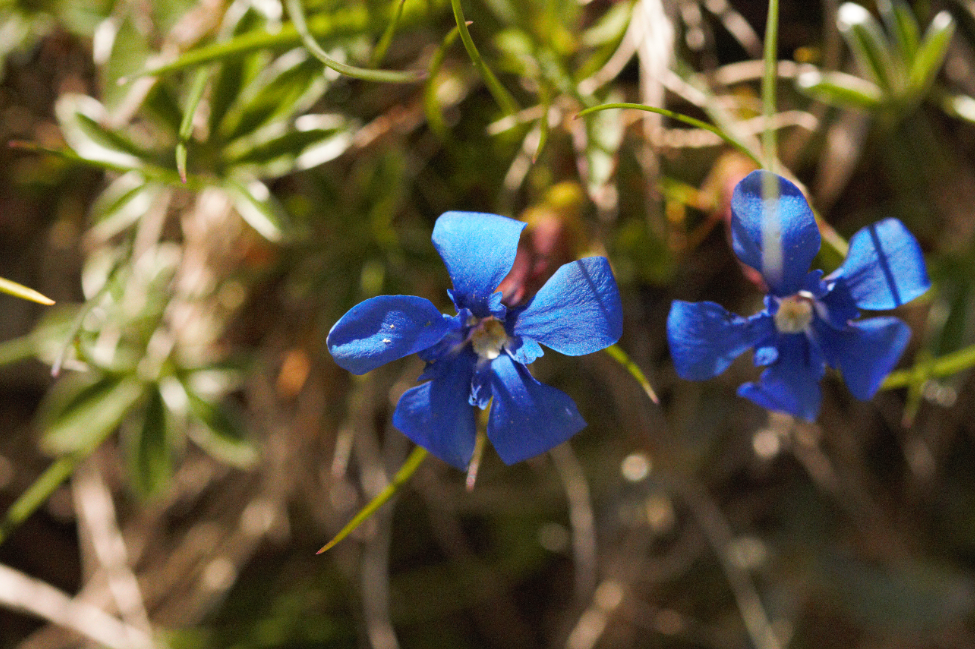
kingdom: Plantae
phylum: Tracheophyta
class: Magnoliopsida
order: Gentianales
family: Gentianaceae
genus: Gentiana
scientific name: Gentiana verna
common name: Spring gentian
